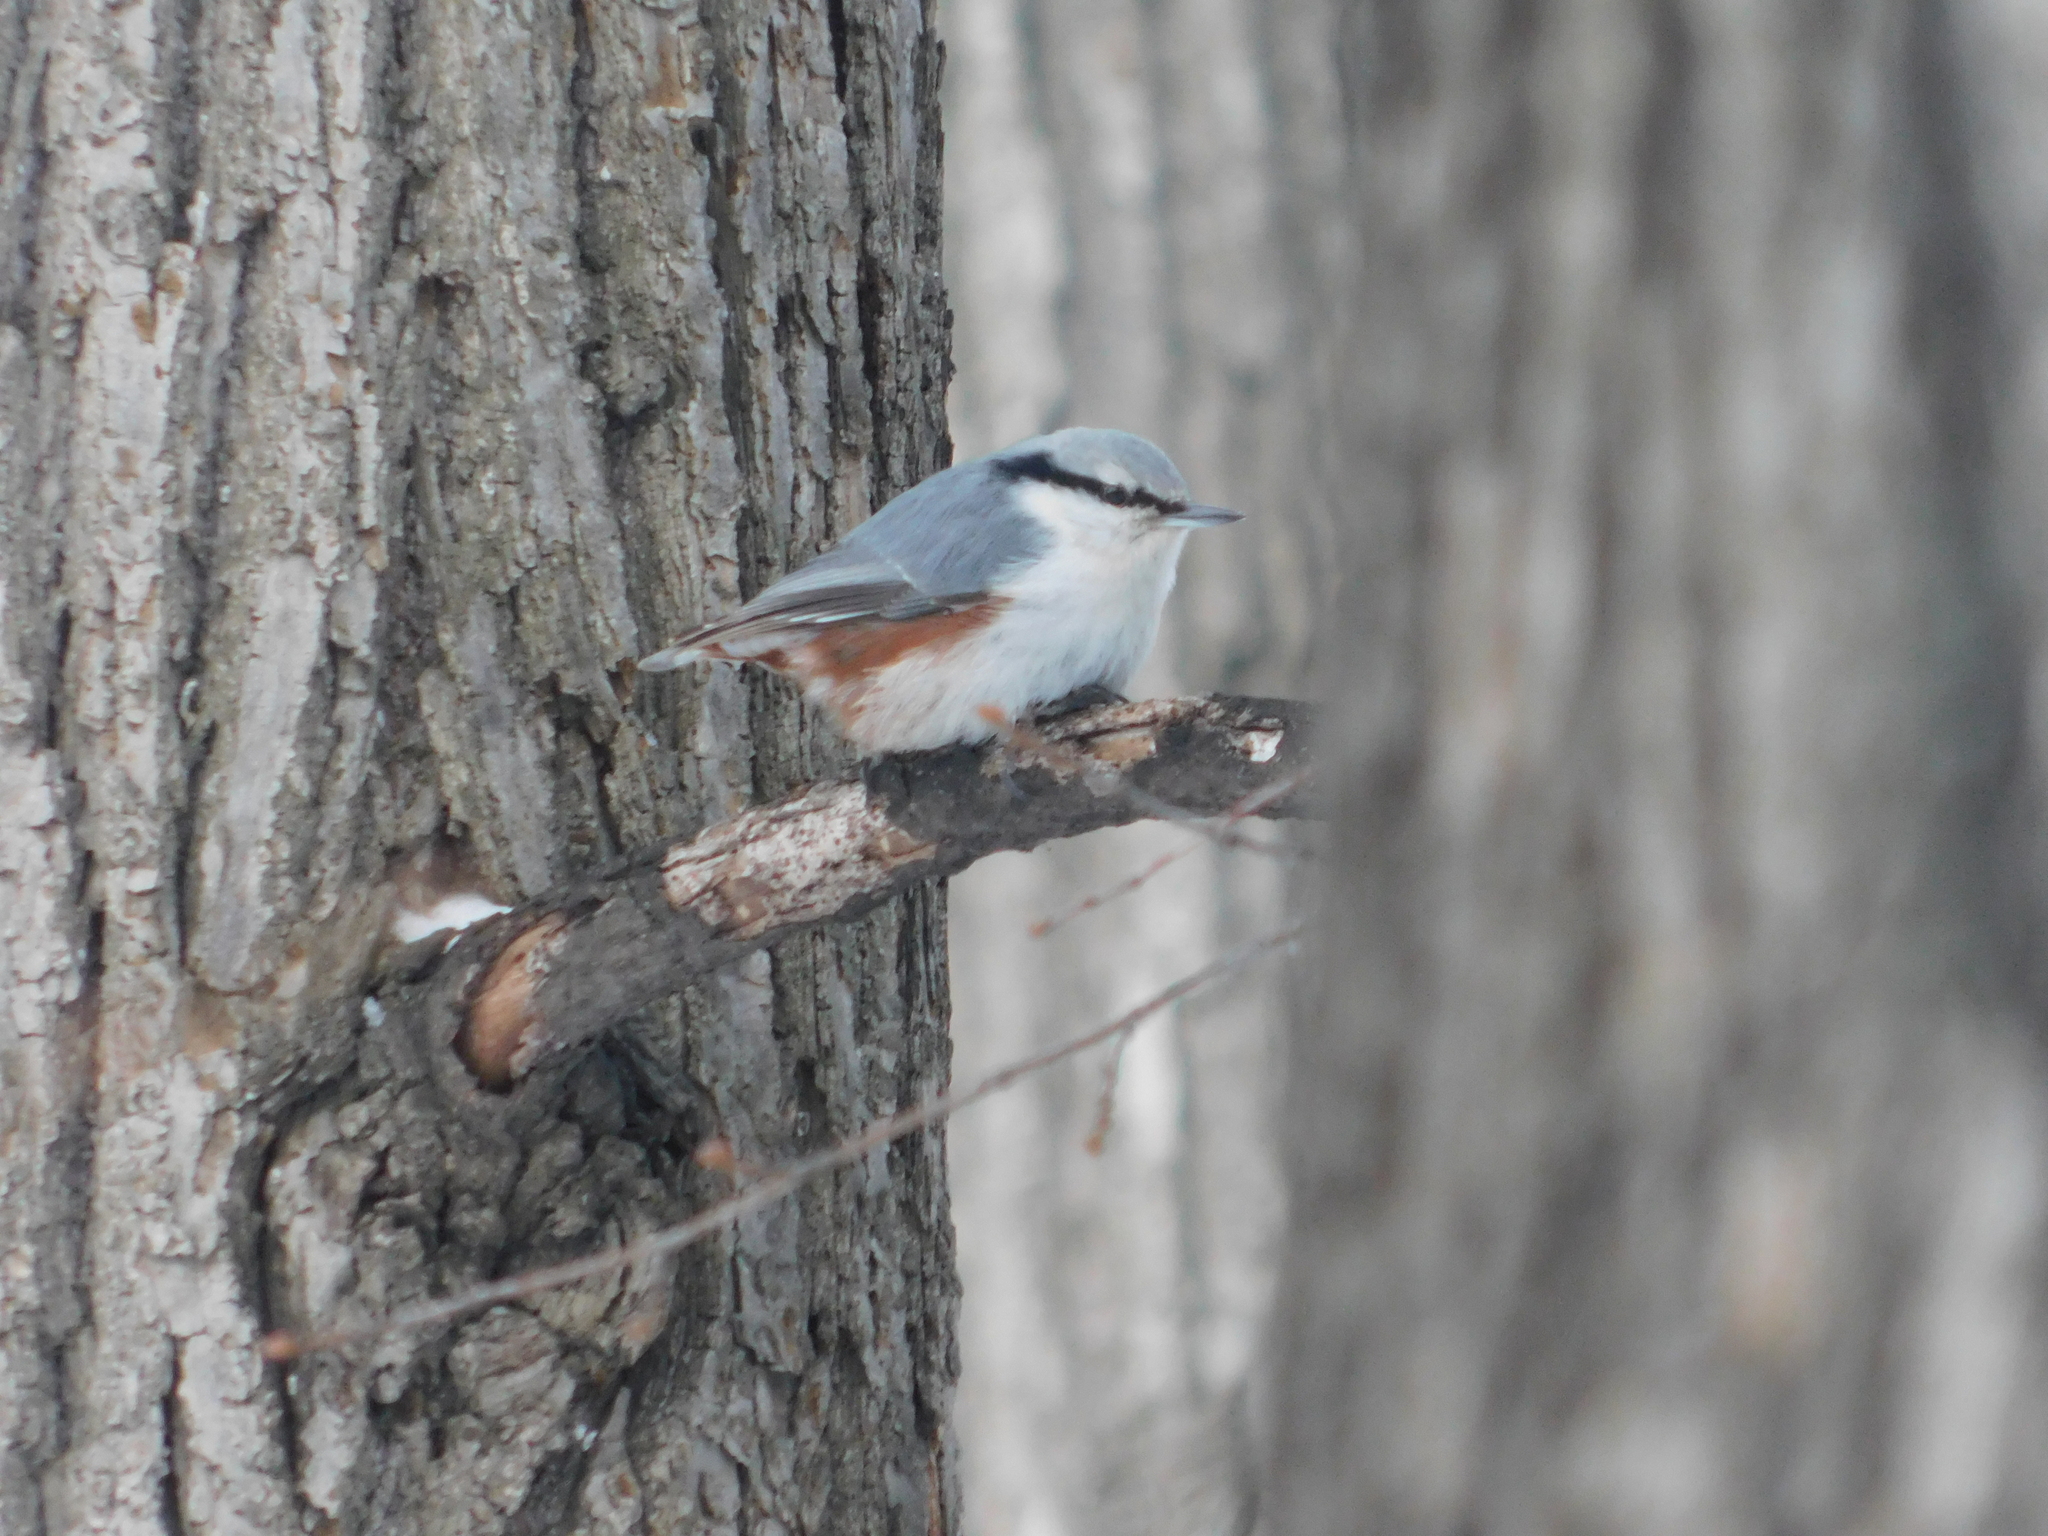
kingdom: Animalia
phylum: Chordata
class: Aves
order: Passeriformes
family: Sittidae
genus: Sitta
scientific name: Sitta europaea
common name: Eurasian nuthatch
